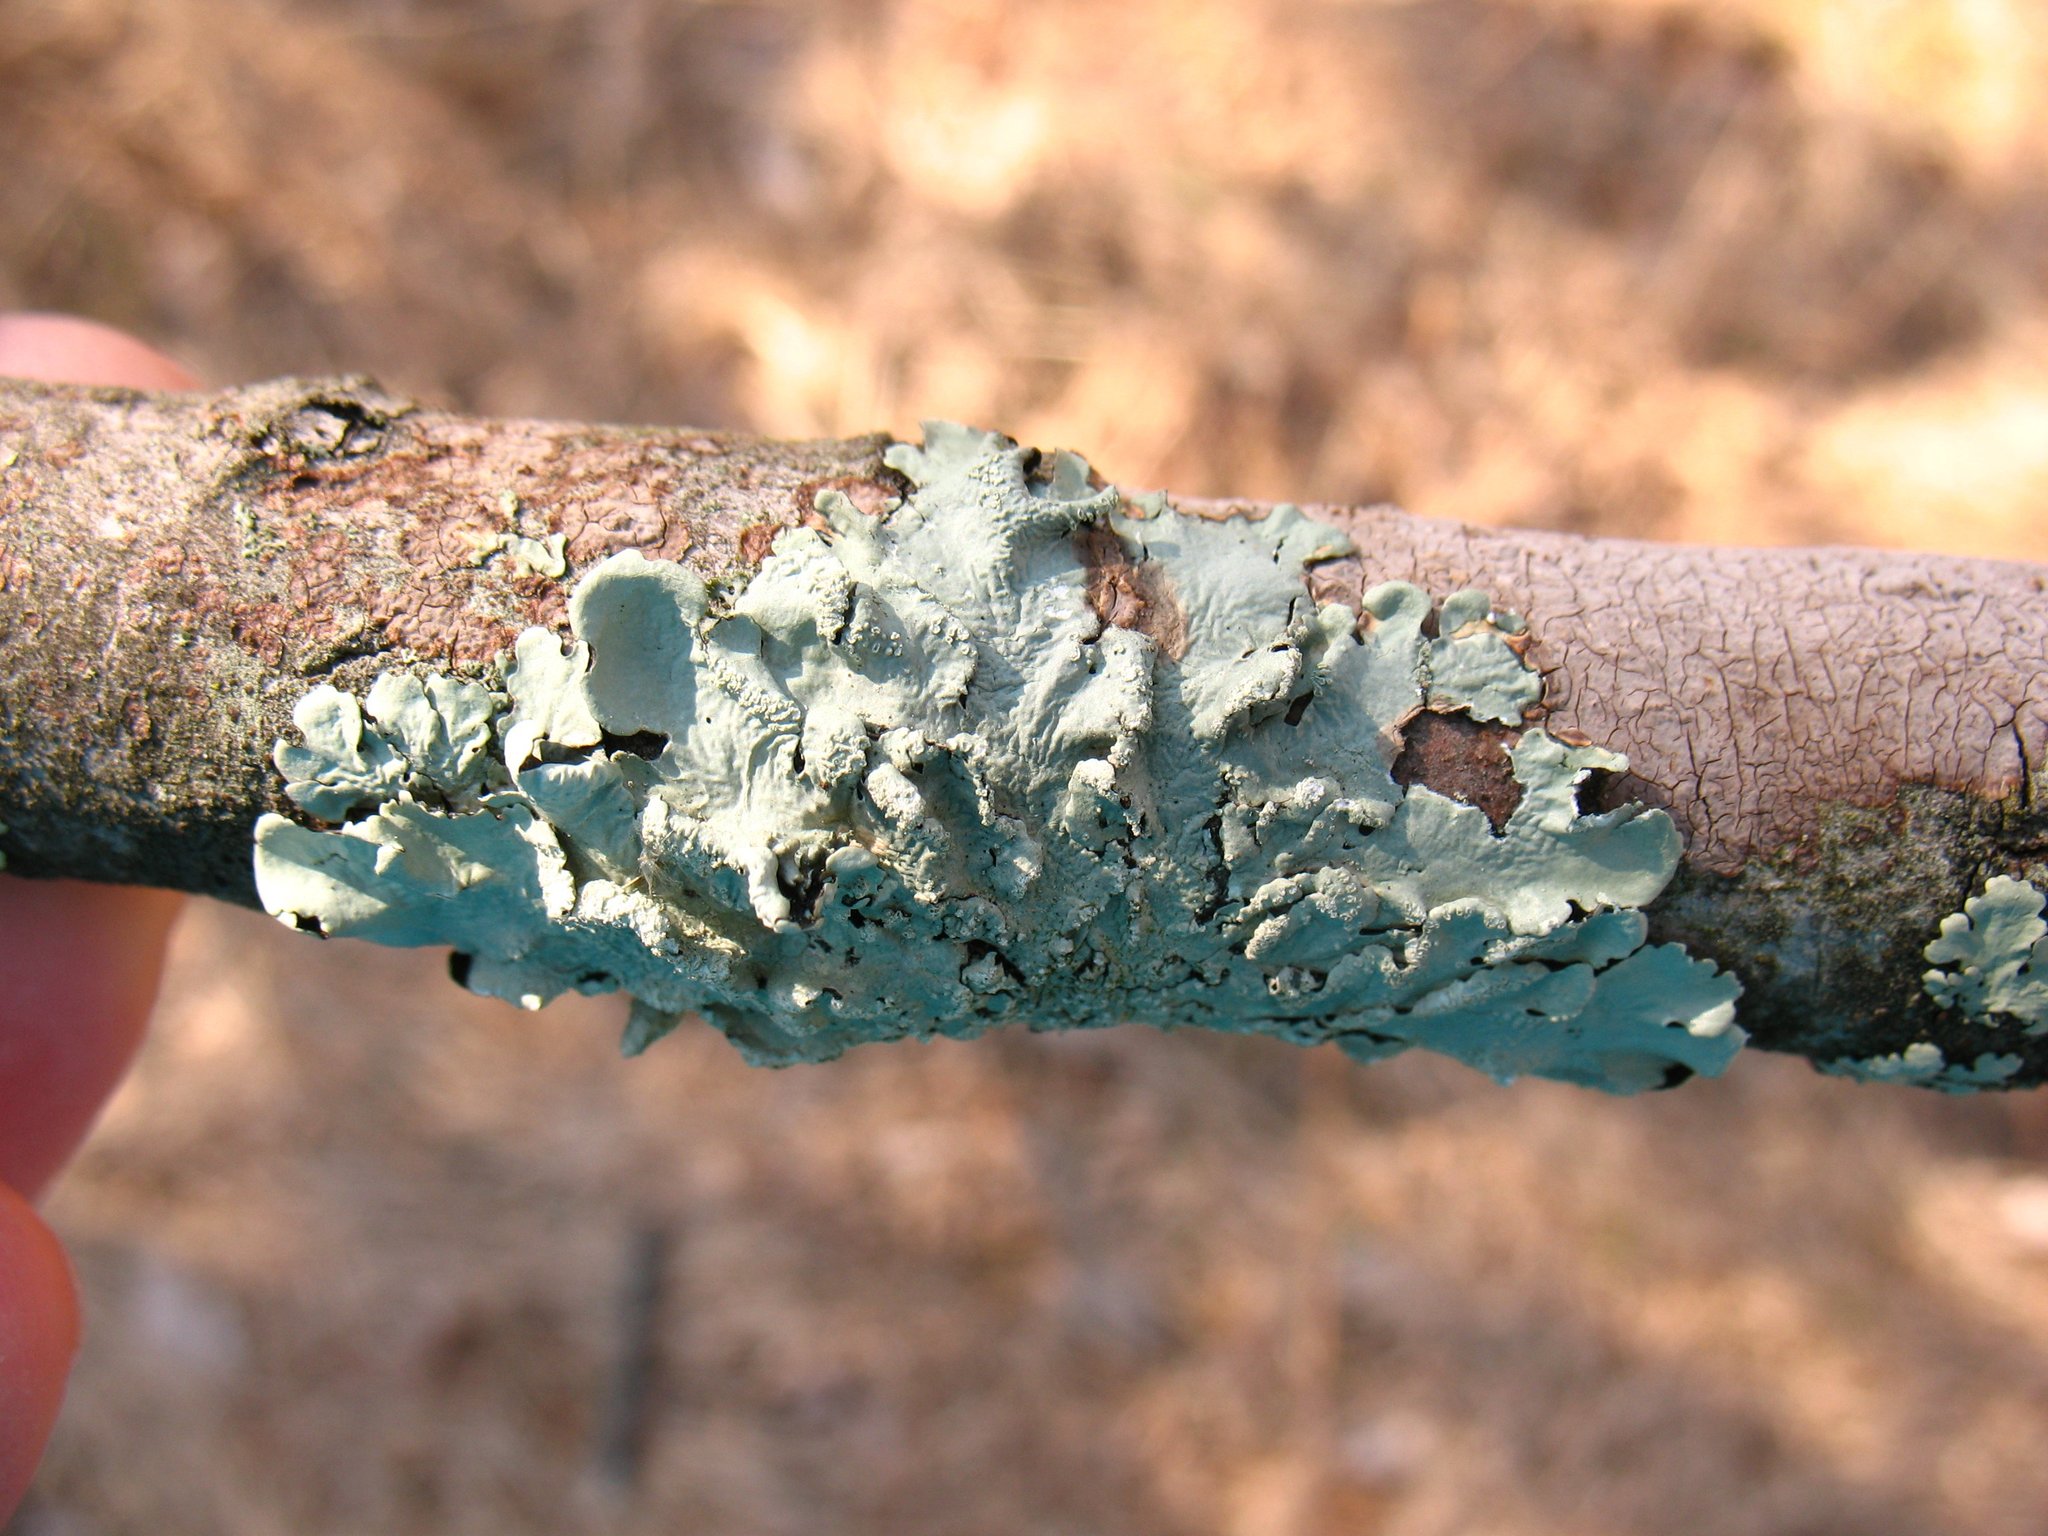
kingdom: Fungi
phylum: Ascomycota
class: Lecanoromycetes
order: Lecanorales
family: Parmeliaceae
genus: Flavoparmelia
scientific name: Flavoparmelia caperata
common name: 40-mile per hour lichen
